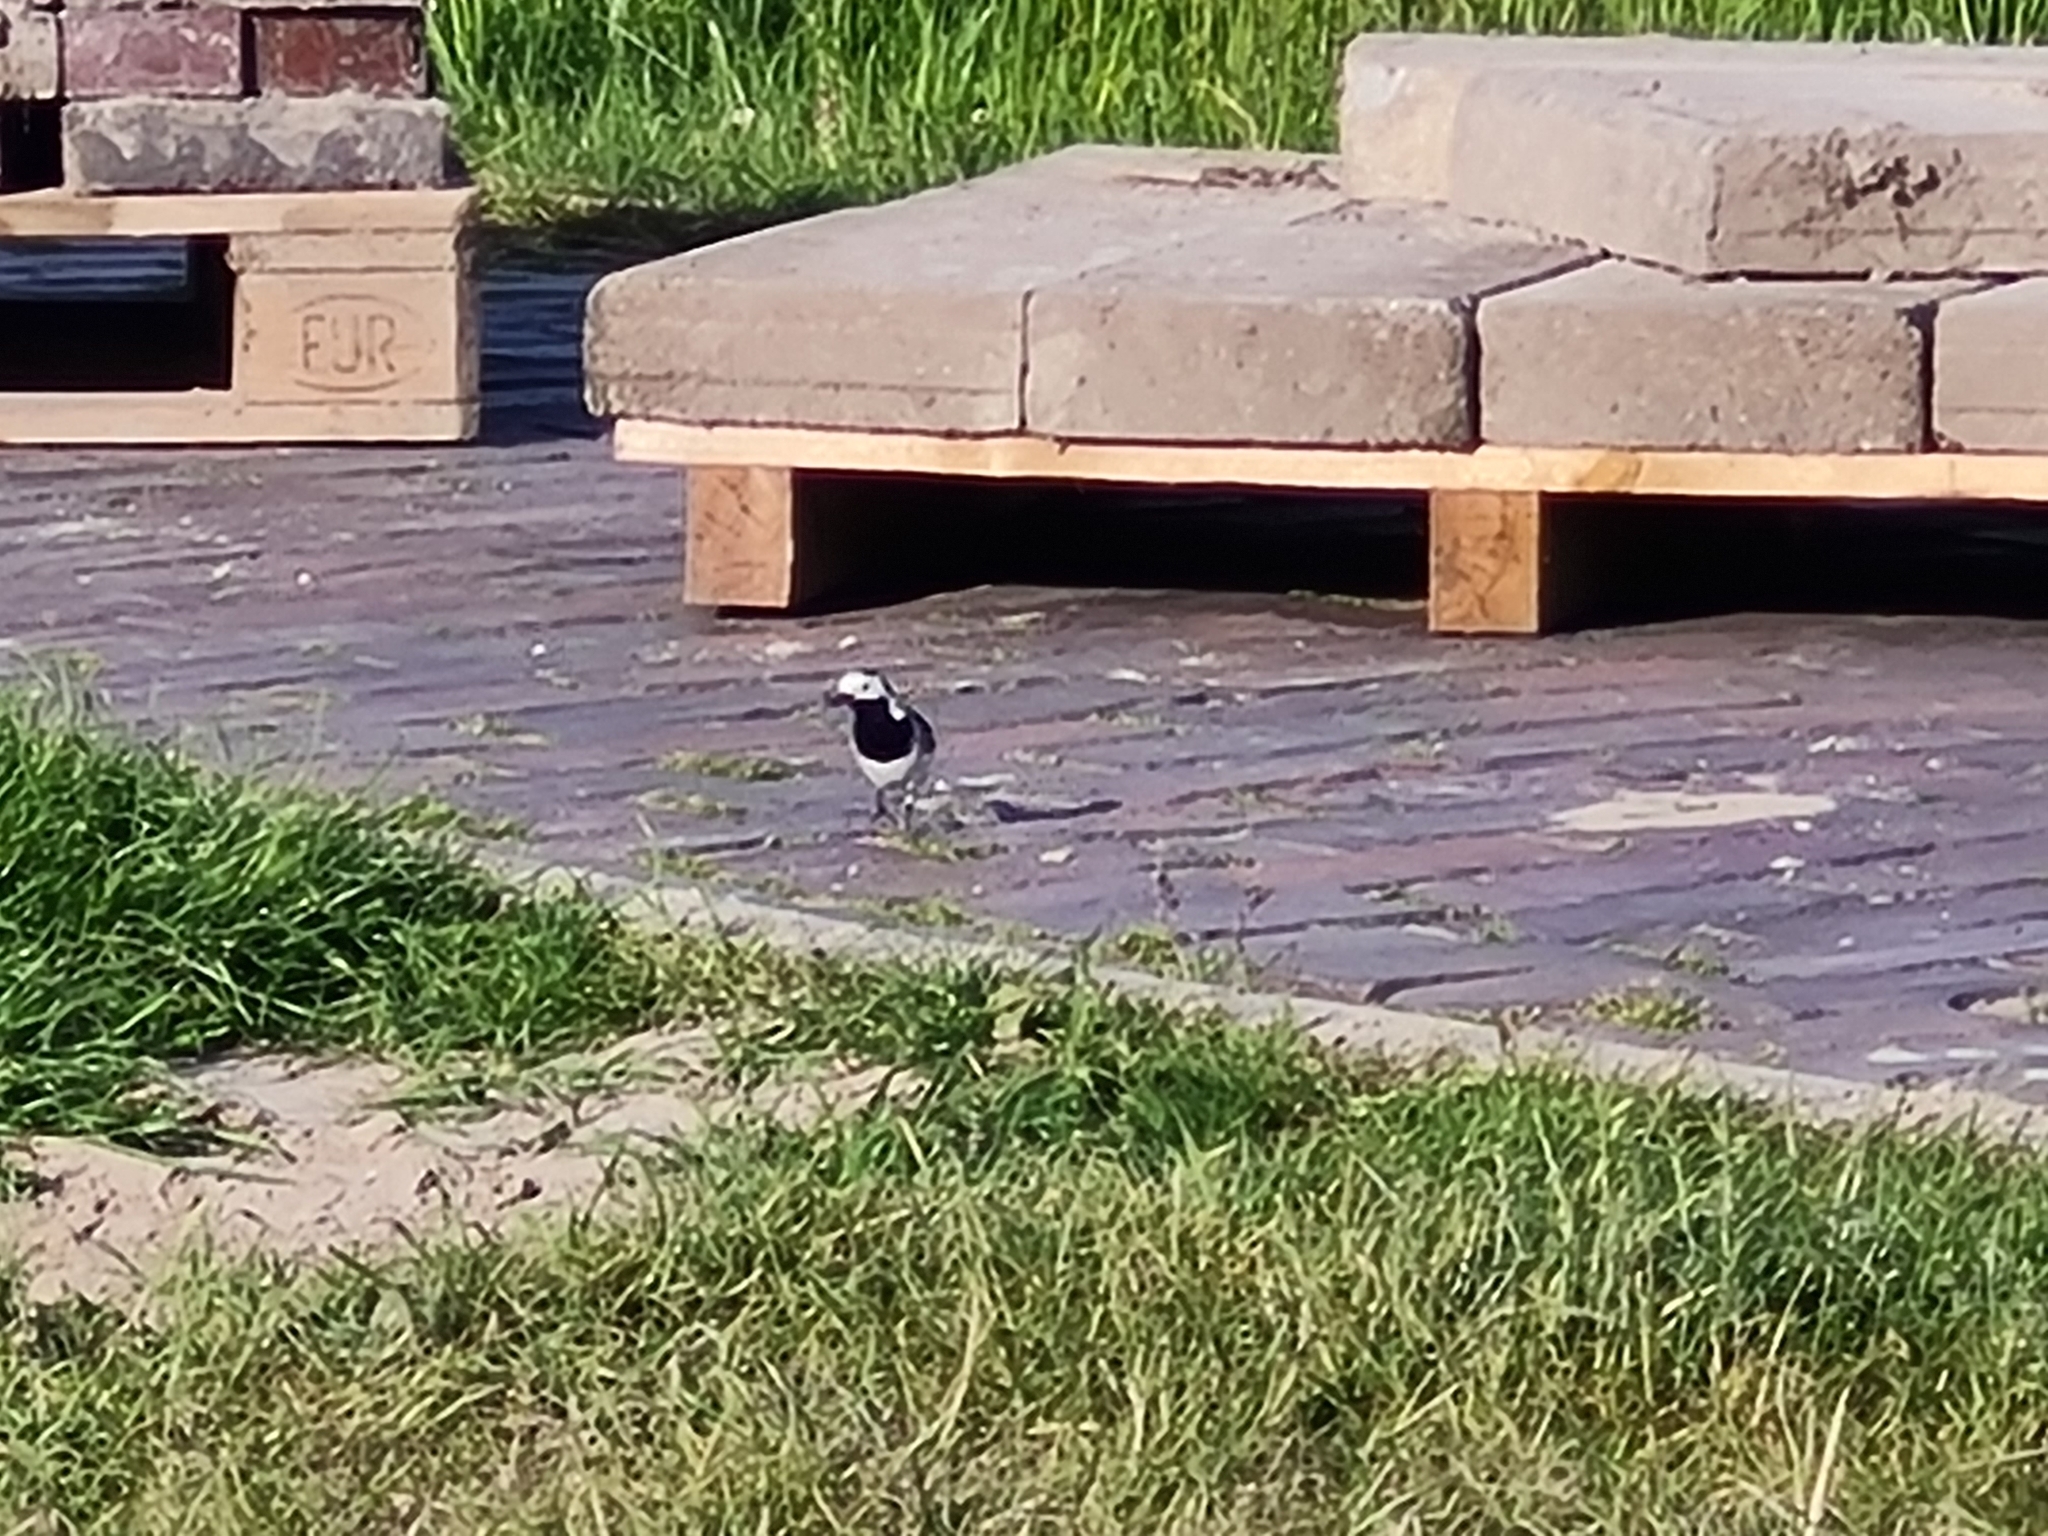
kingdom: Animalia
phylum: Chordata
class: Aves
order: Passeriformes
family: Motacillidae
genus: Motacilla
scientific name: Motacilla alba
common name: White wagtail
